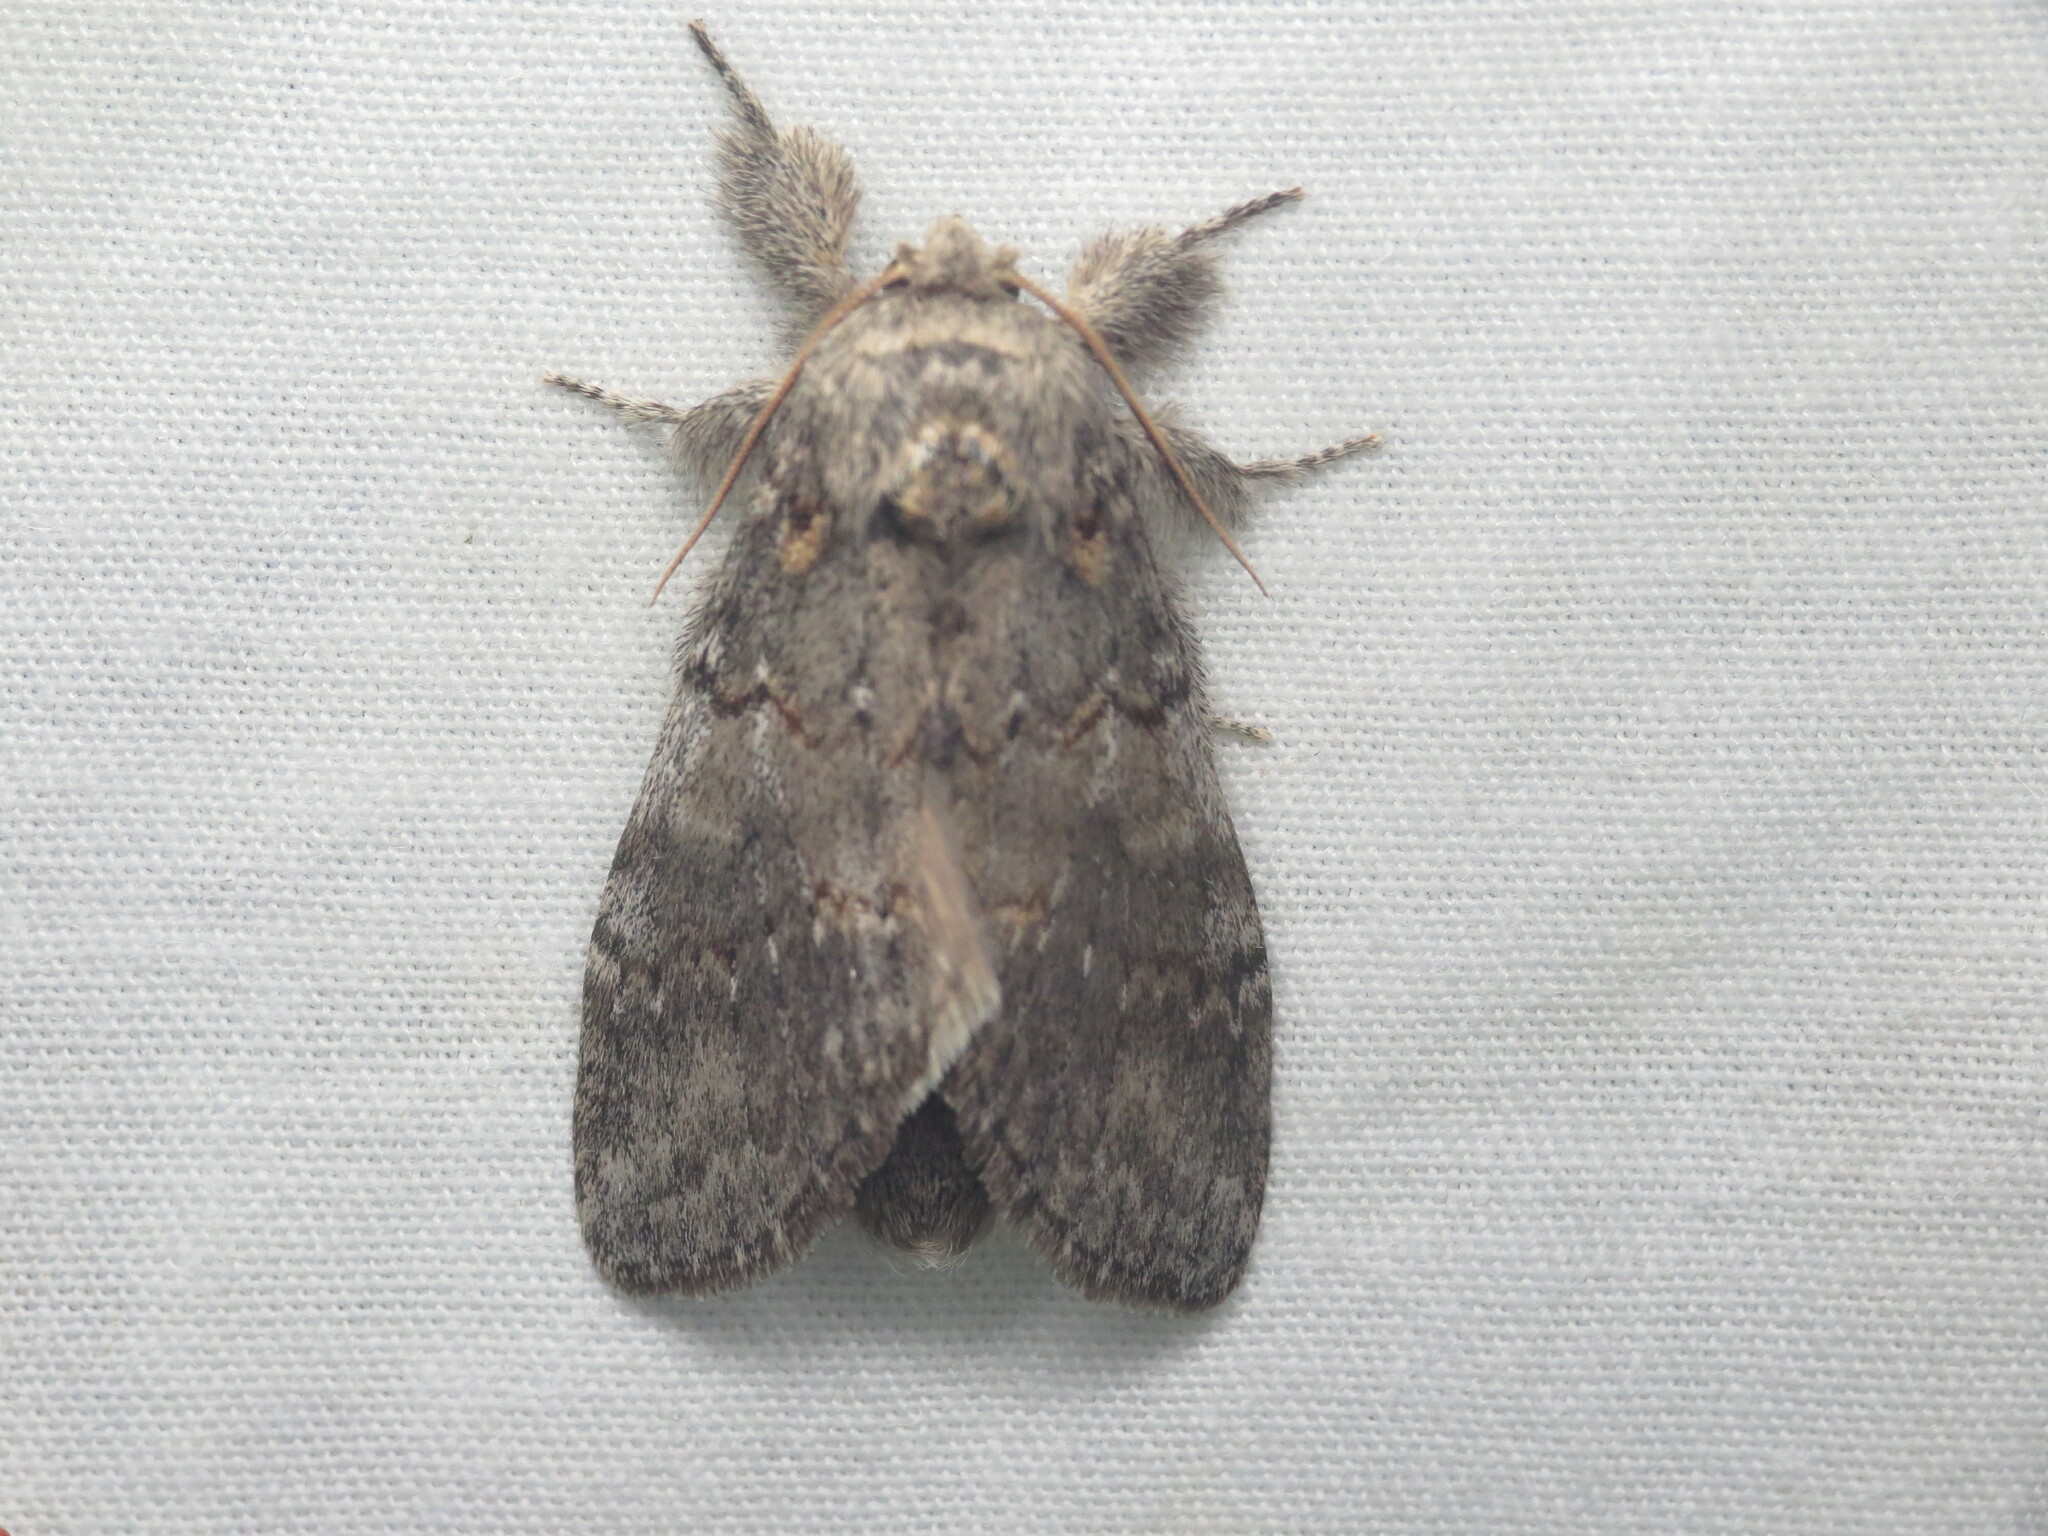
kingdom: Animalia
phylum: Arthropoda
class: Insecta
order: Lepidoptera
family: Notodontidae
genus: Peridea
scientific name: Peridea angulosa
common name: Angulose prominent
